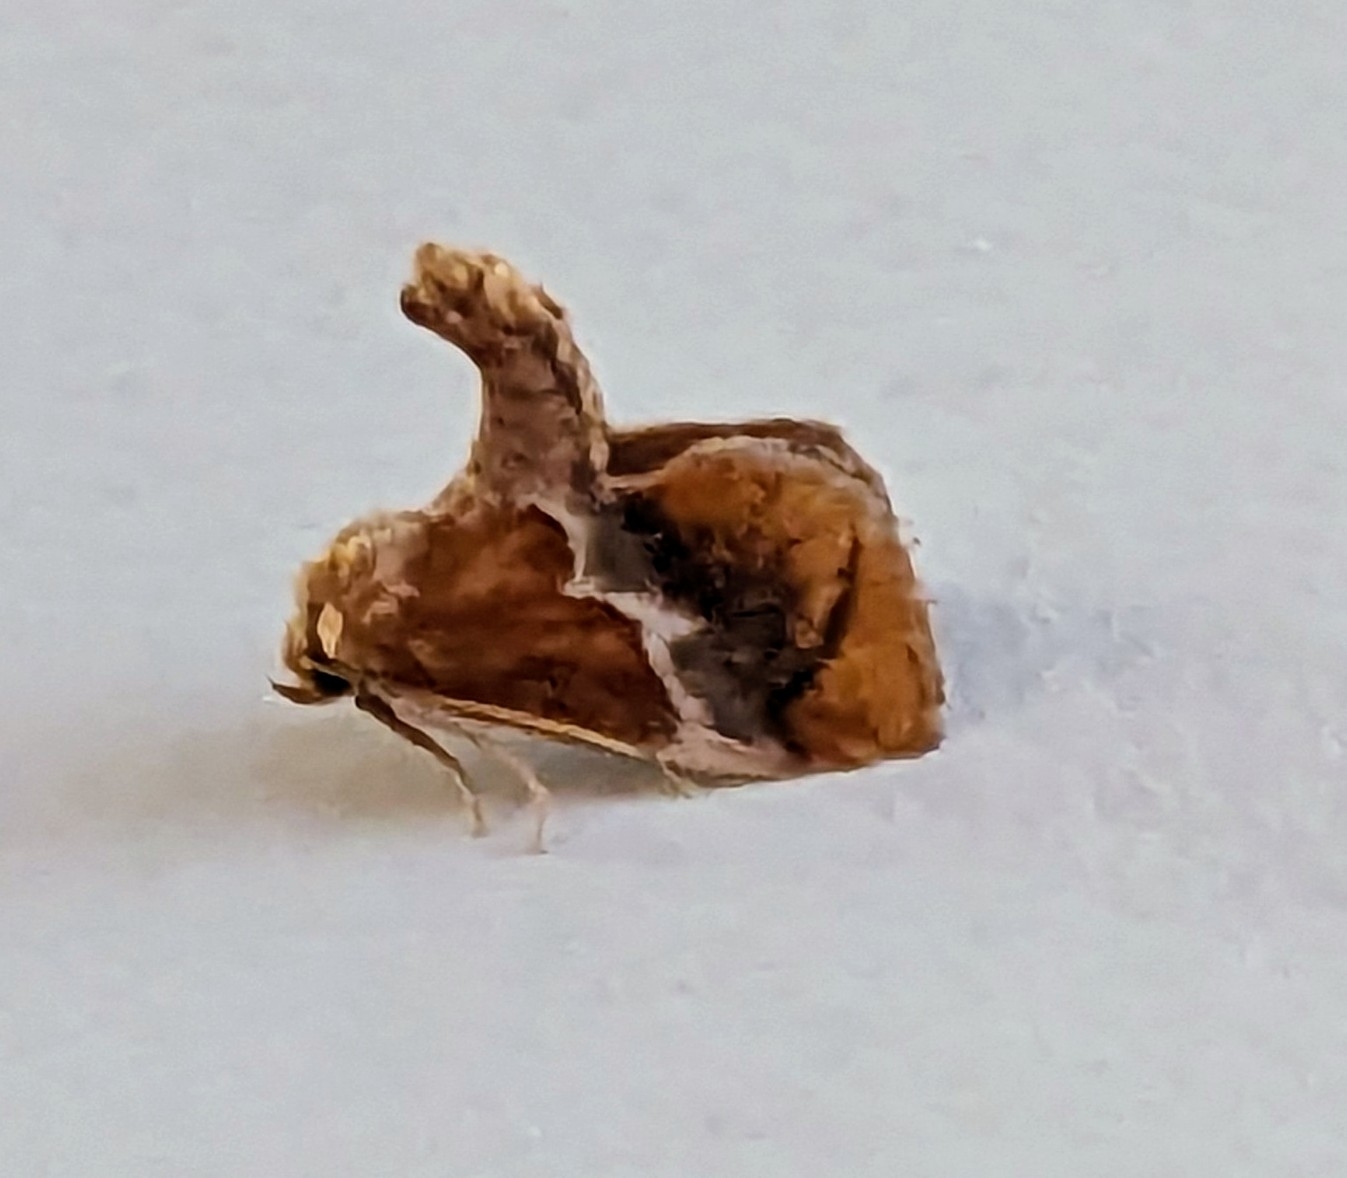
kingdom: Animalia
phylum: Arthropoda
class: Insecta
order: Lepidoptera
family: Limacodidae
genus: Lithacodes
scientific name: Lithacodes fasciola
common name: Yellow-shouldered slug moth
